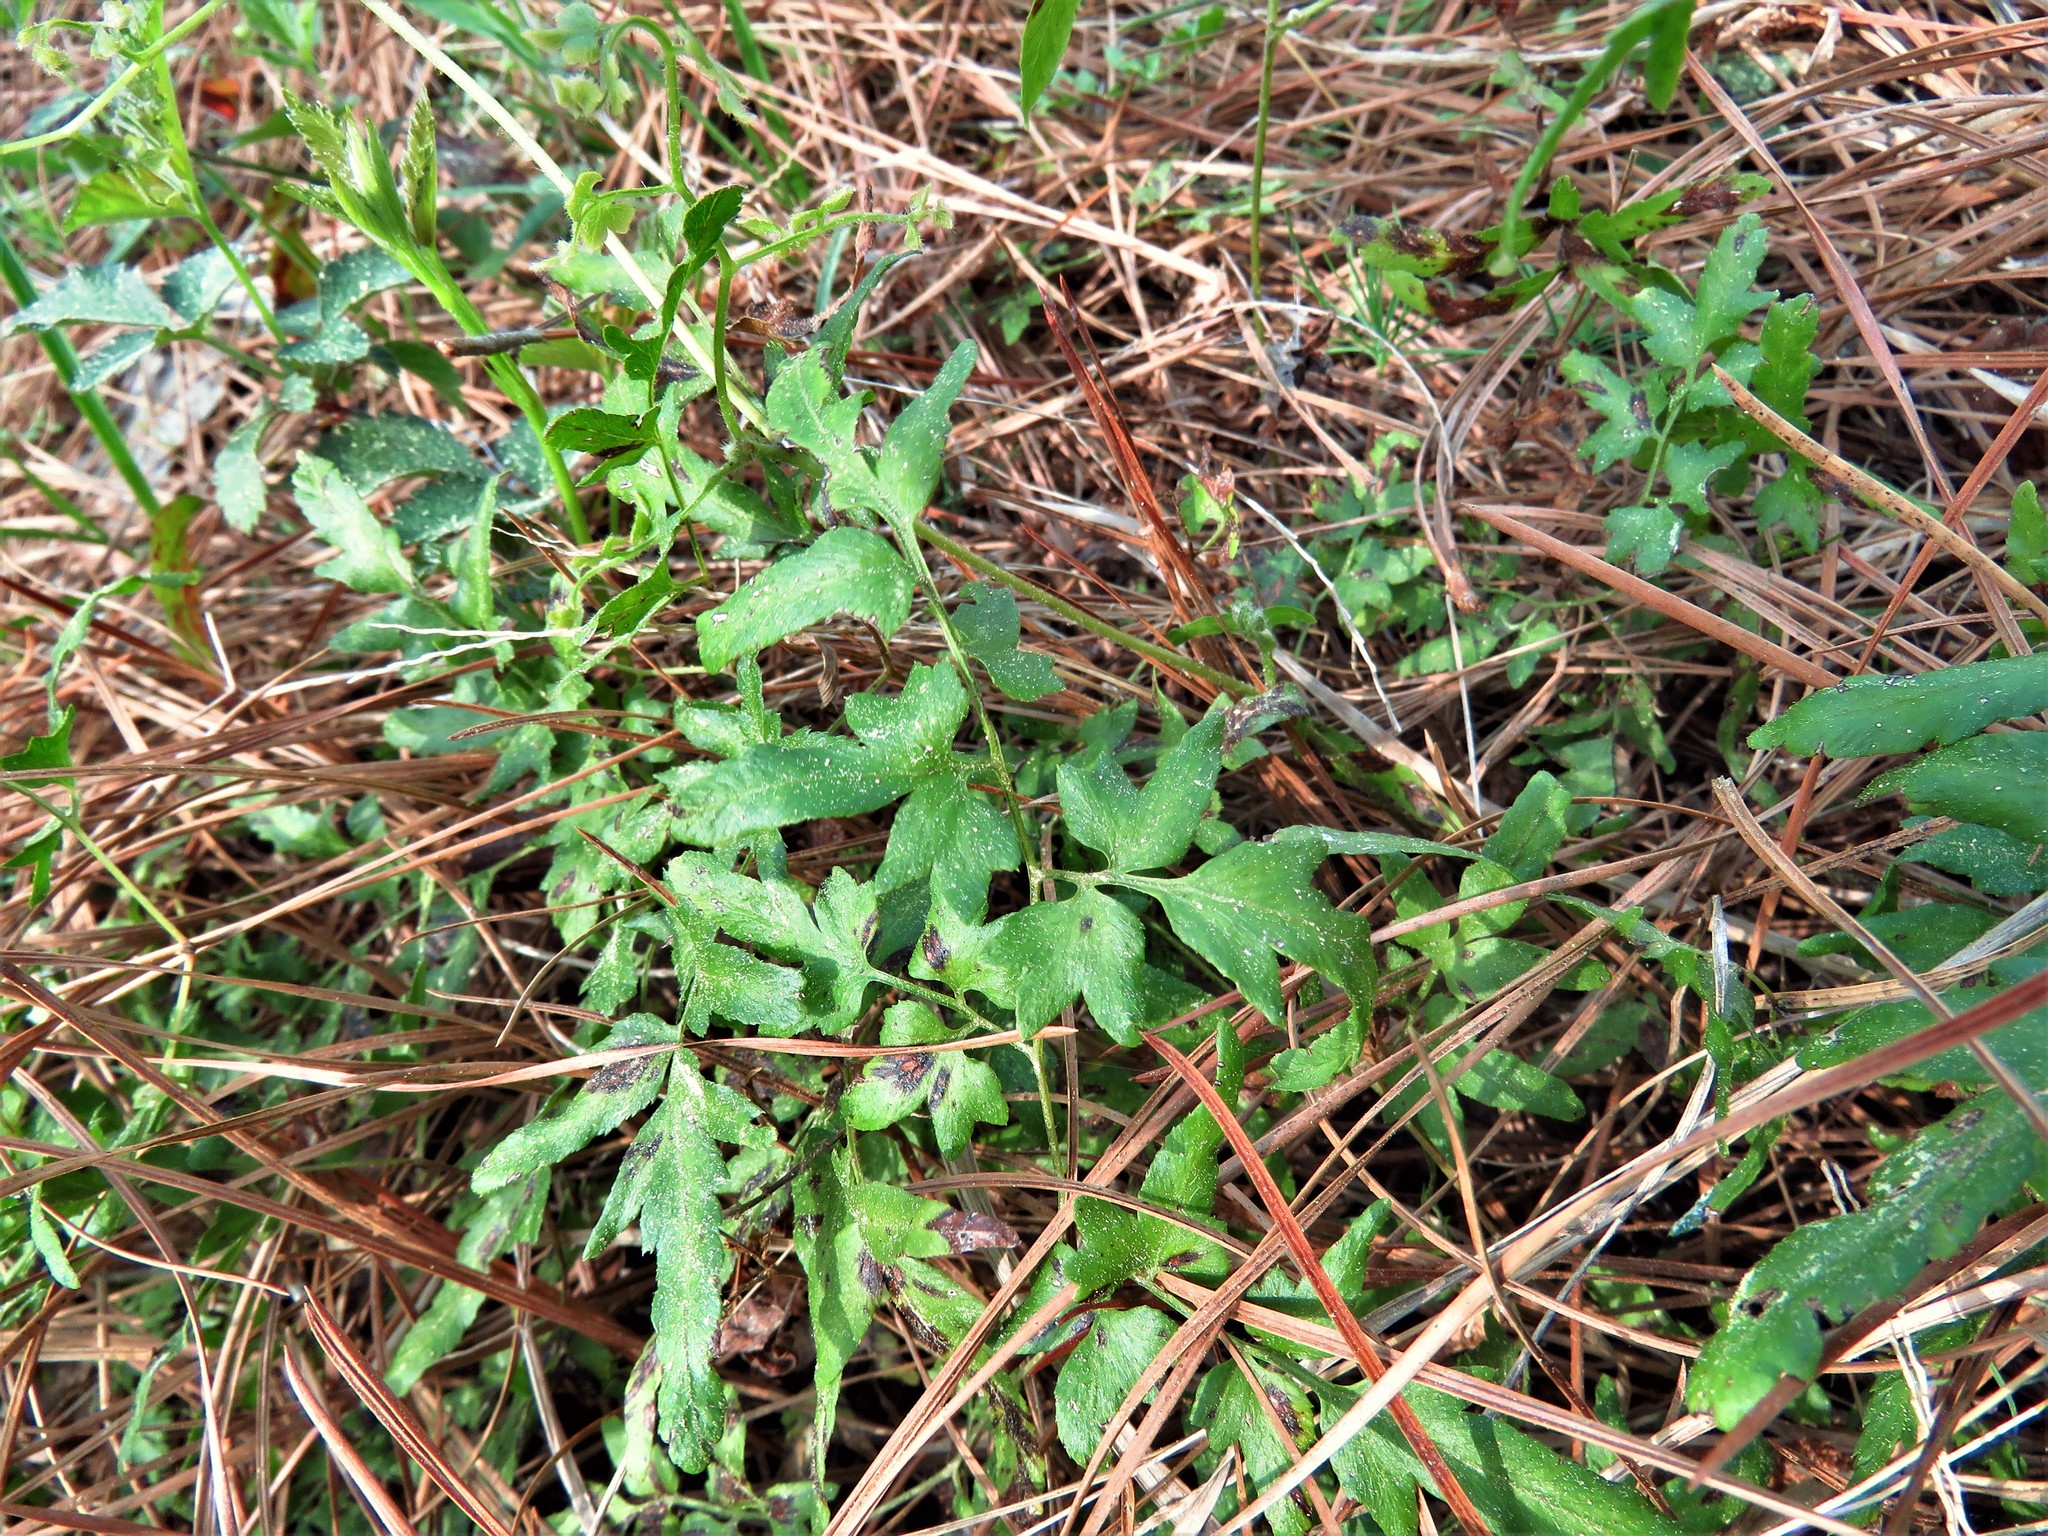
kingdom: Plantae
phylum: Tracheophyta
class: Polypodiopsida
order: Schizaeales
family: Lygodiaceae
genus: Lygodium
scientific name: Lygodium japonicum
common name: Japanese climbing fern
